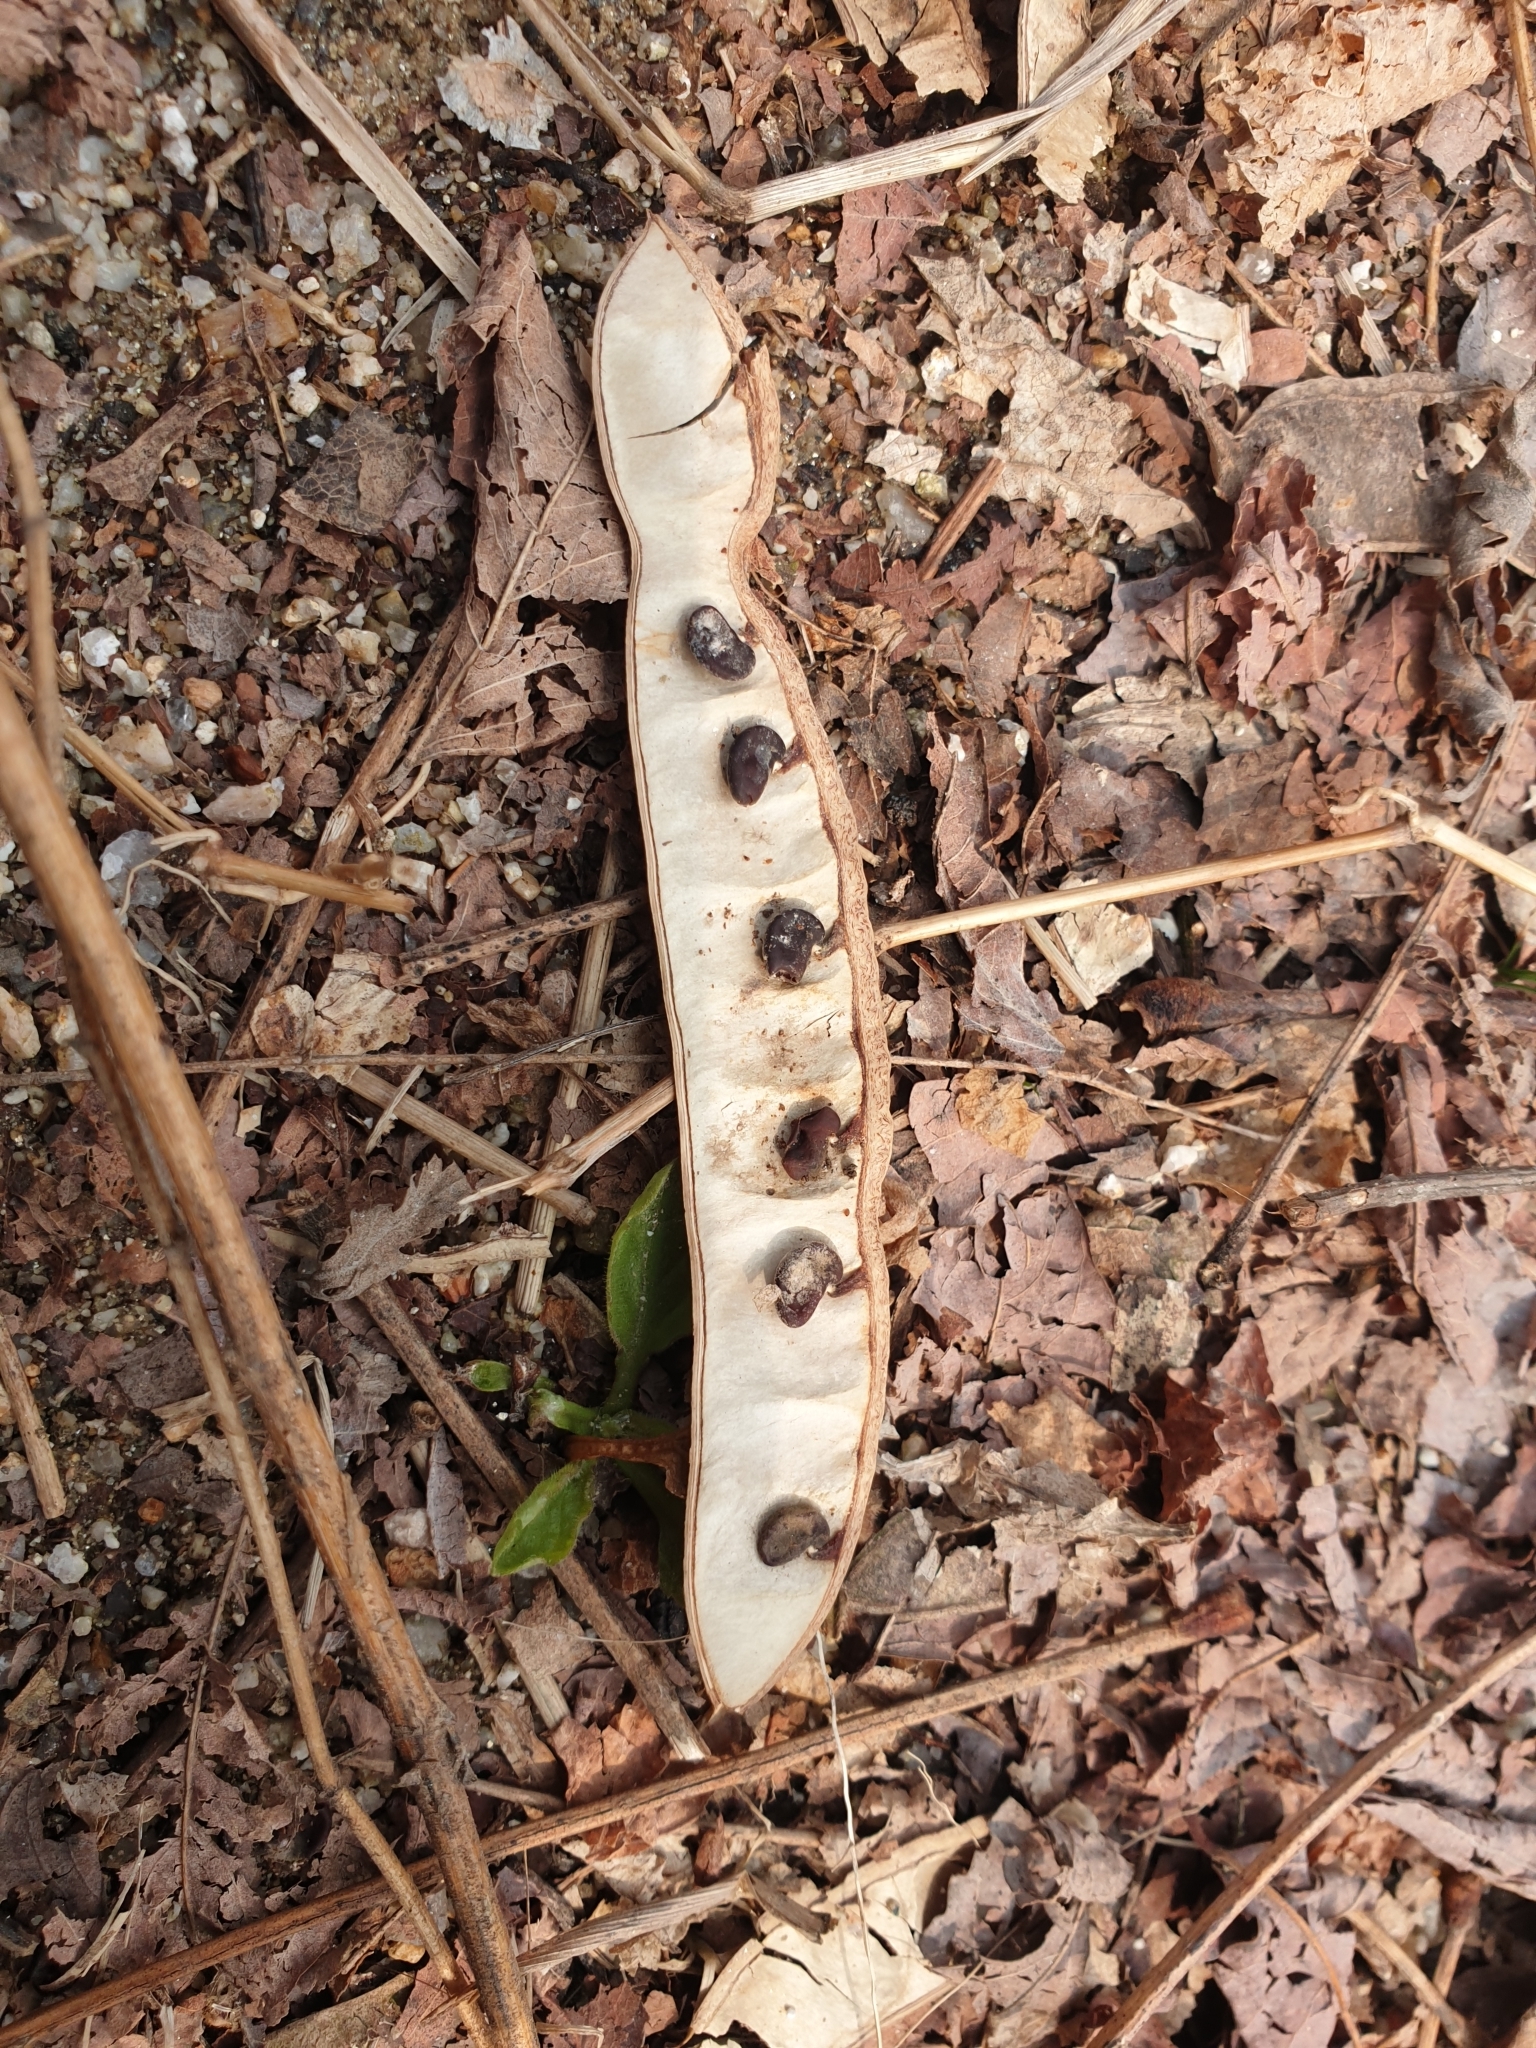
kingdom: Plantae
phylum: Tracheophyta
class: Magnoliopsida
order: Fabales
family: Fabaceae
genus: Robinia
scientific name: Robinia pseudoacacia
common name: Black locust
